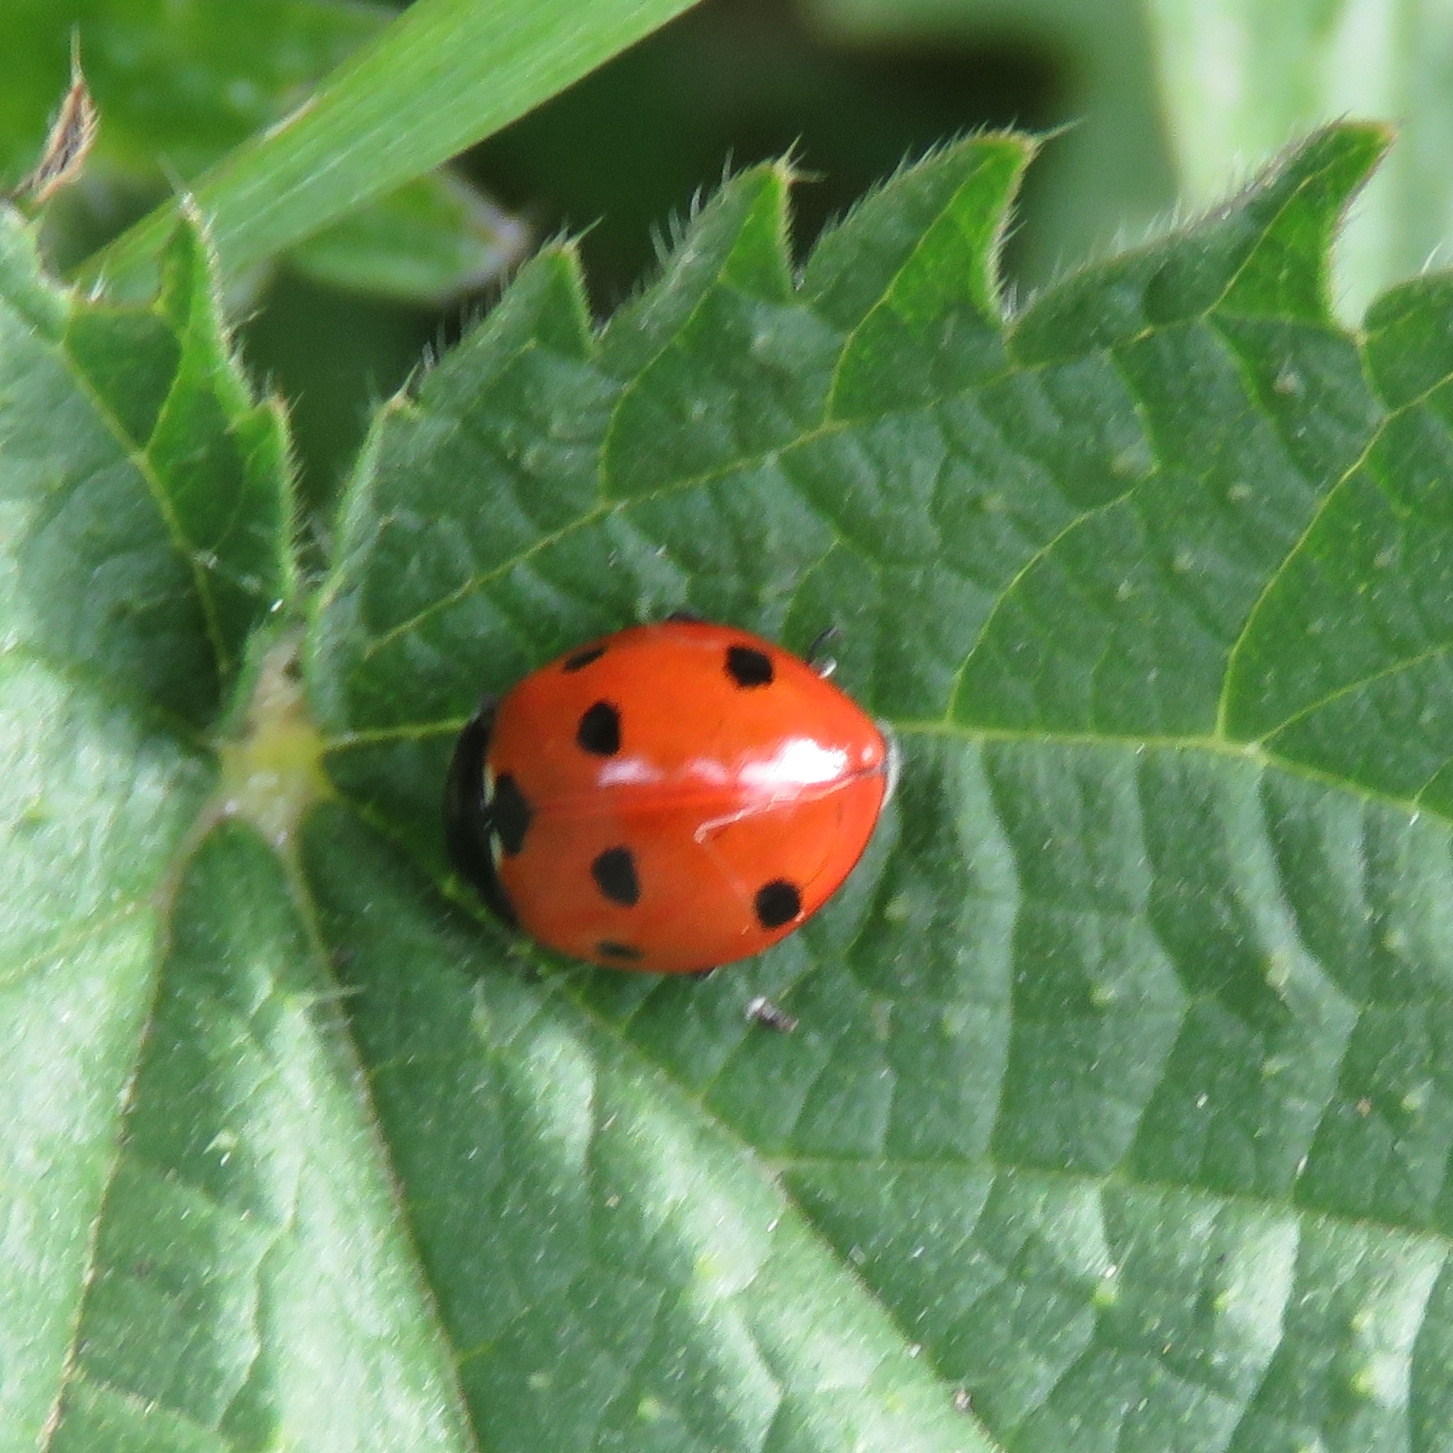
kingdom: Animalia
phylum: Arthropoda
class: Insecta
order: Coleoptera
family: Coccinellidae
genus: Coccinella
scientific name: Coccinella septempunctata
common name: Sevenspotted lady beetle
